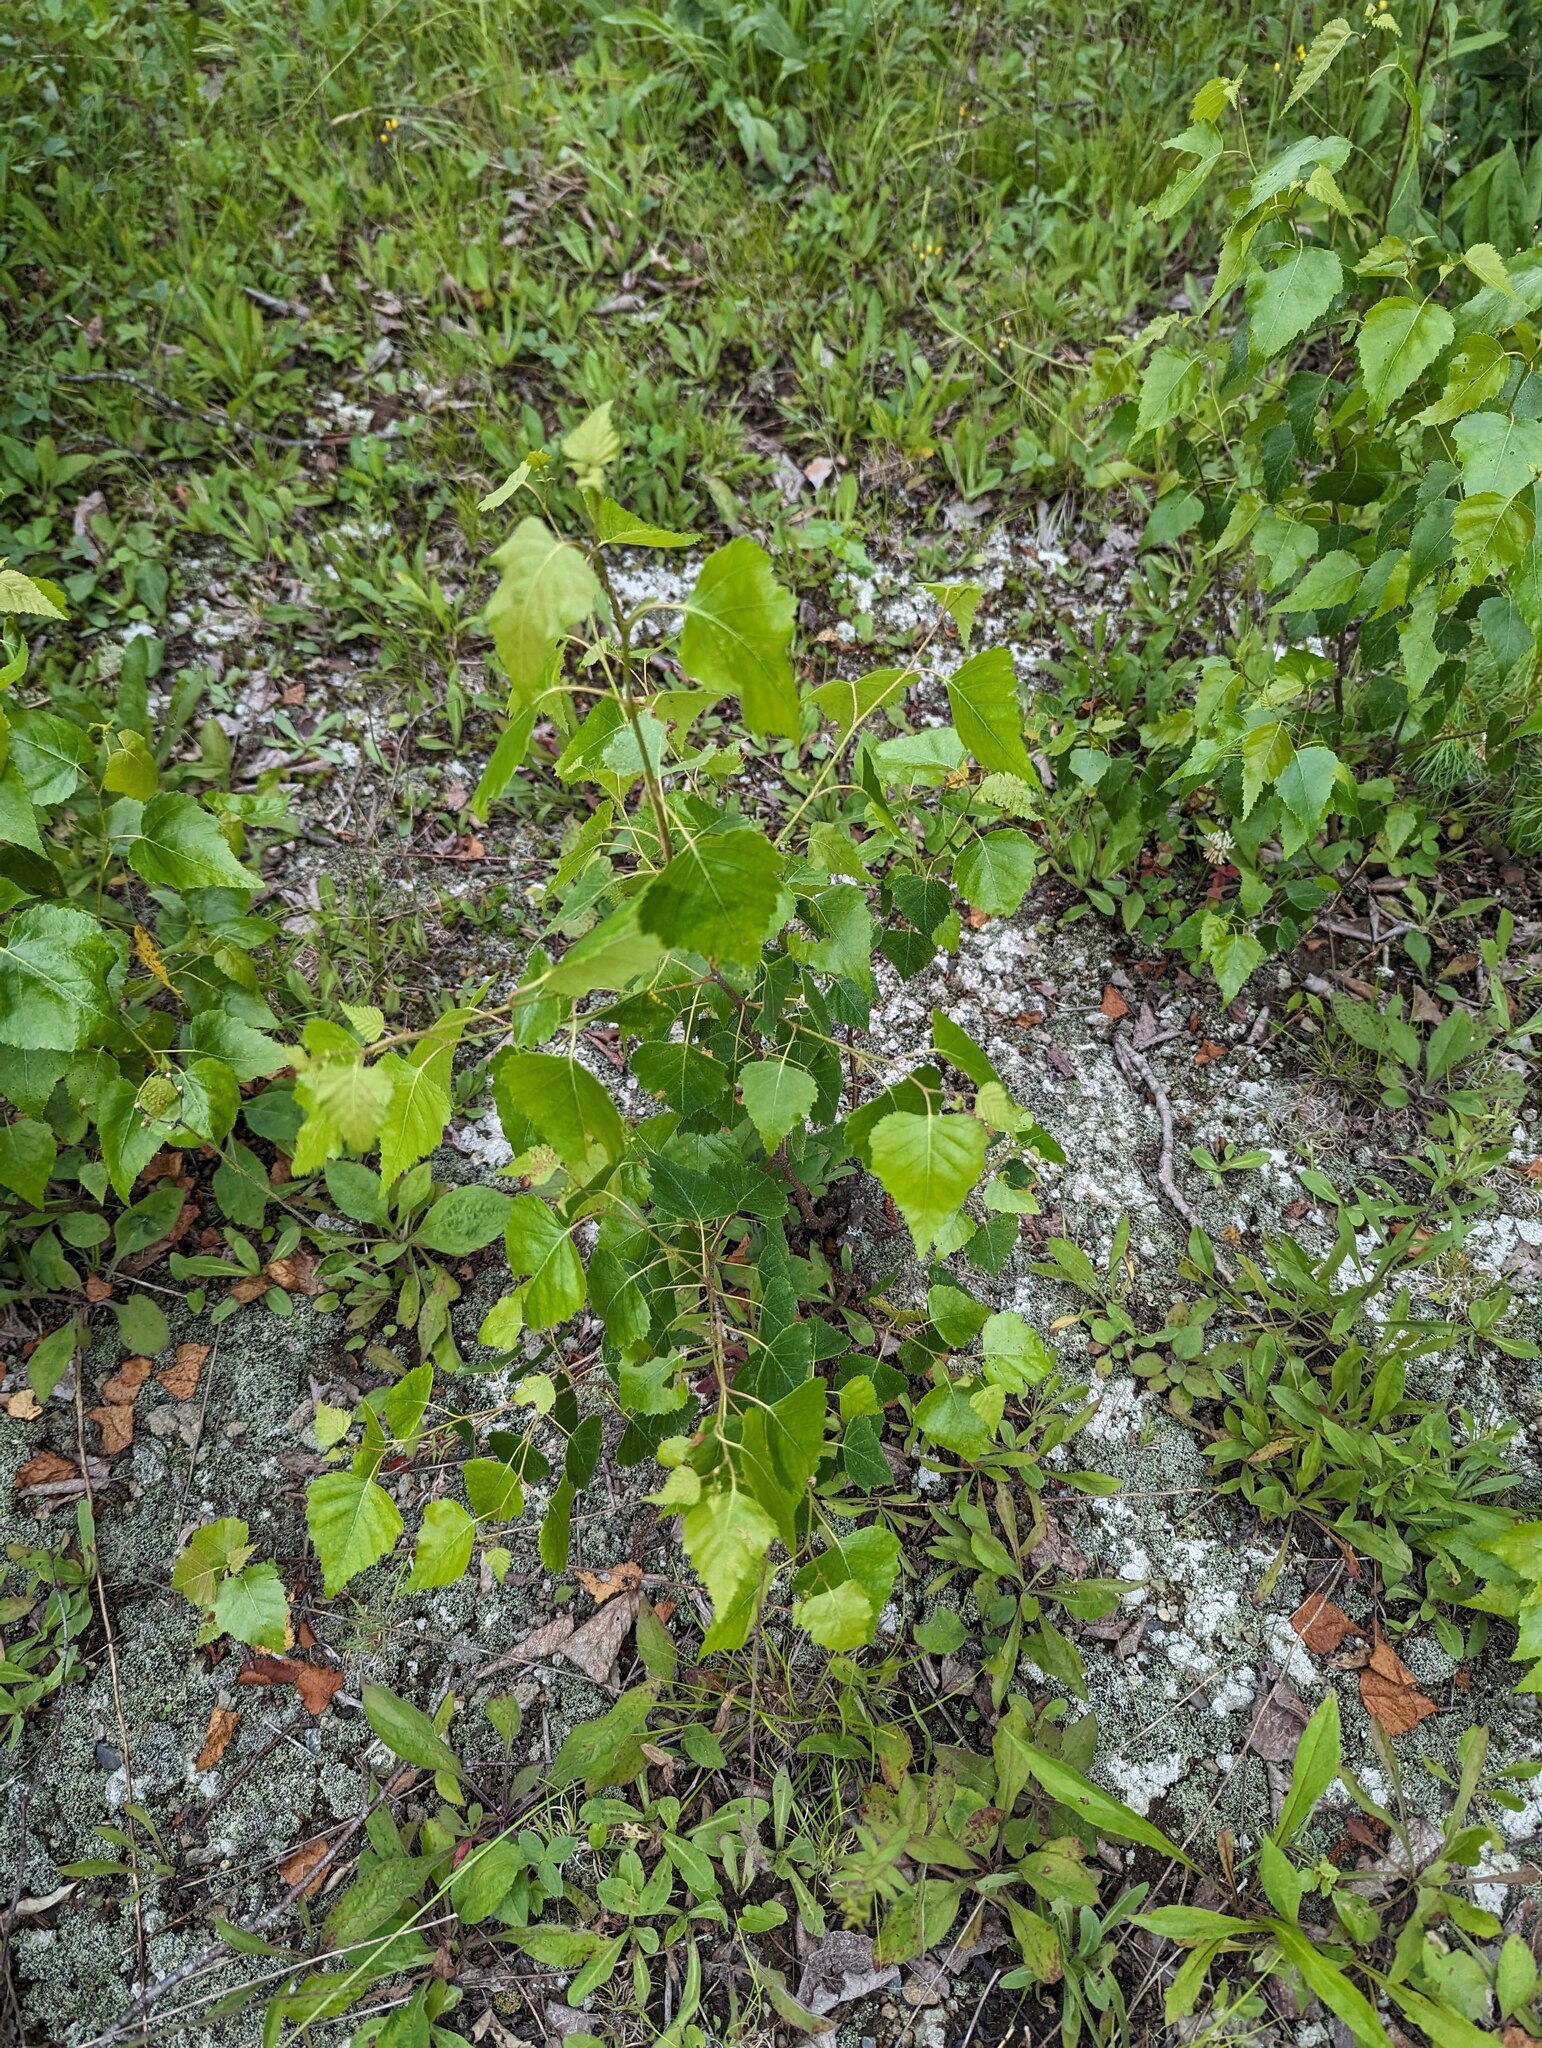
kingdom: Plantae
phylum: Tracheophyta
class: Magnoliopsida
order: Fagales
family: Betulaceae
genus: Betula
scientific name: Betula populifolia
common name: Fire birch
